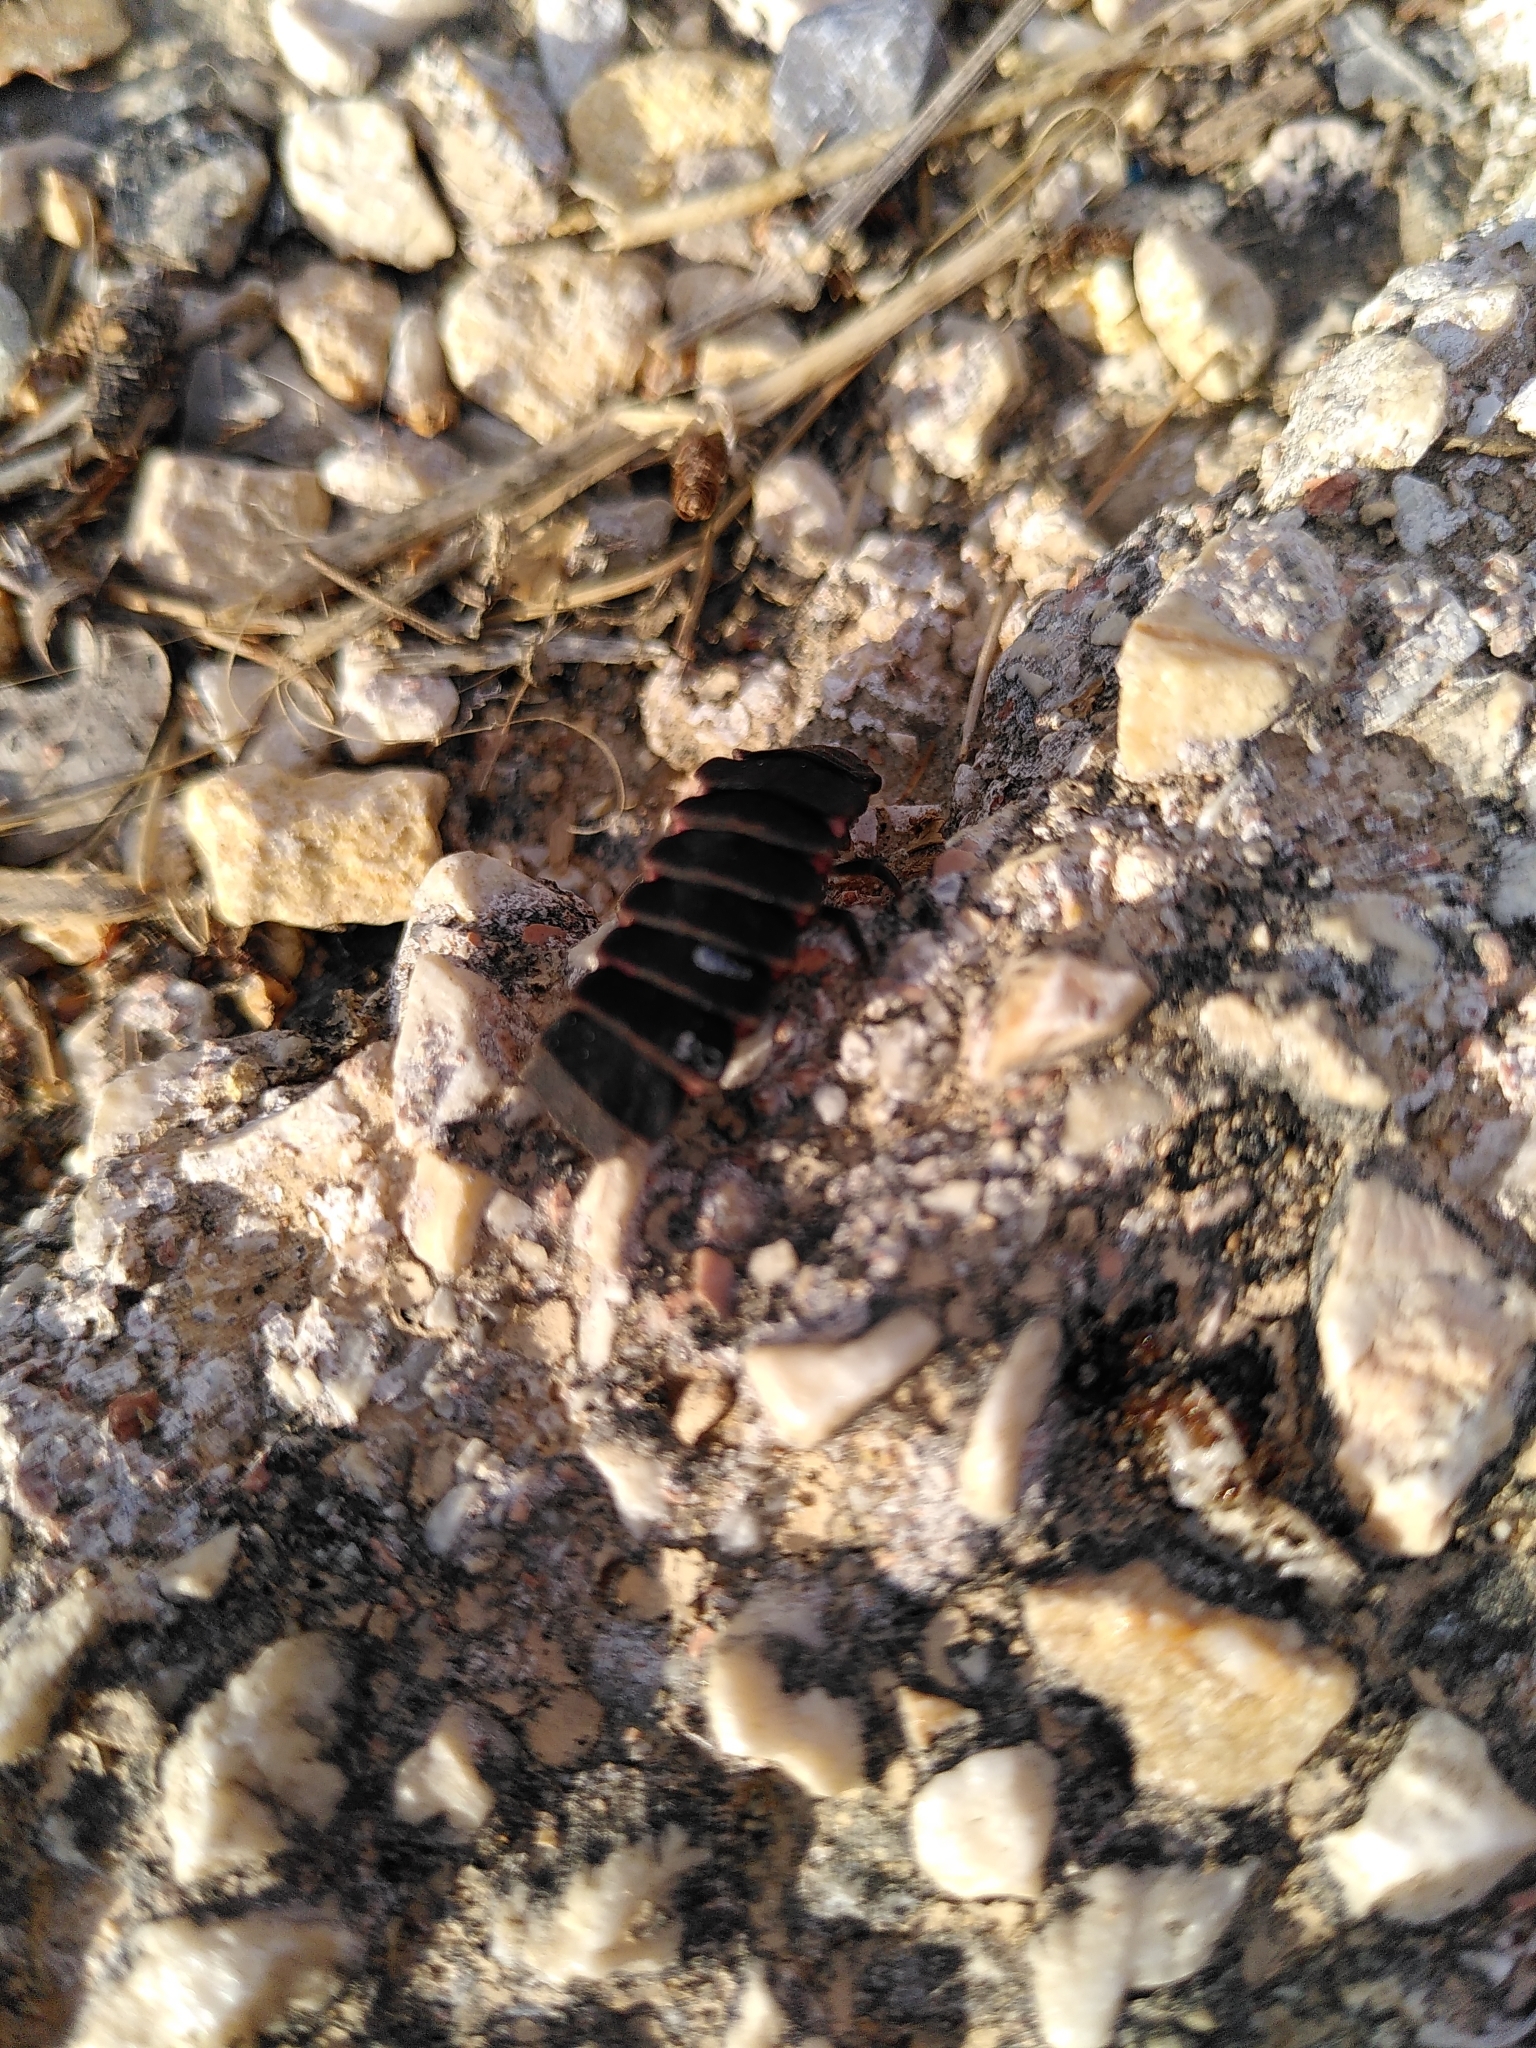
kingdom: Animalia
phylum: Arthropoda
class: Insecta
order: Coleoptera
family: Lampyridae
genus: Nyctophila
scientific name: Nyctophila reichii
